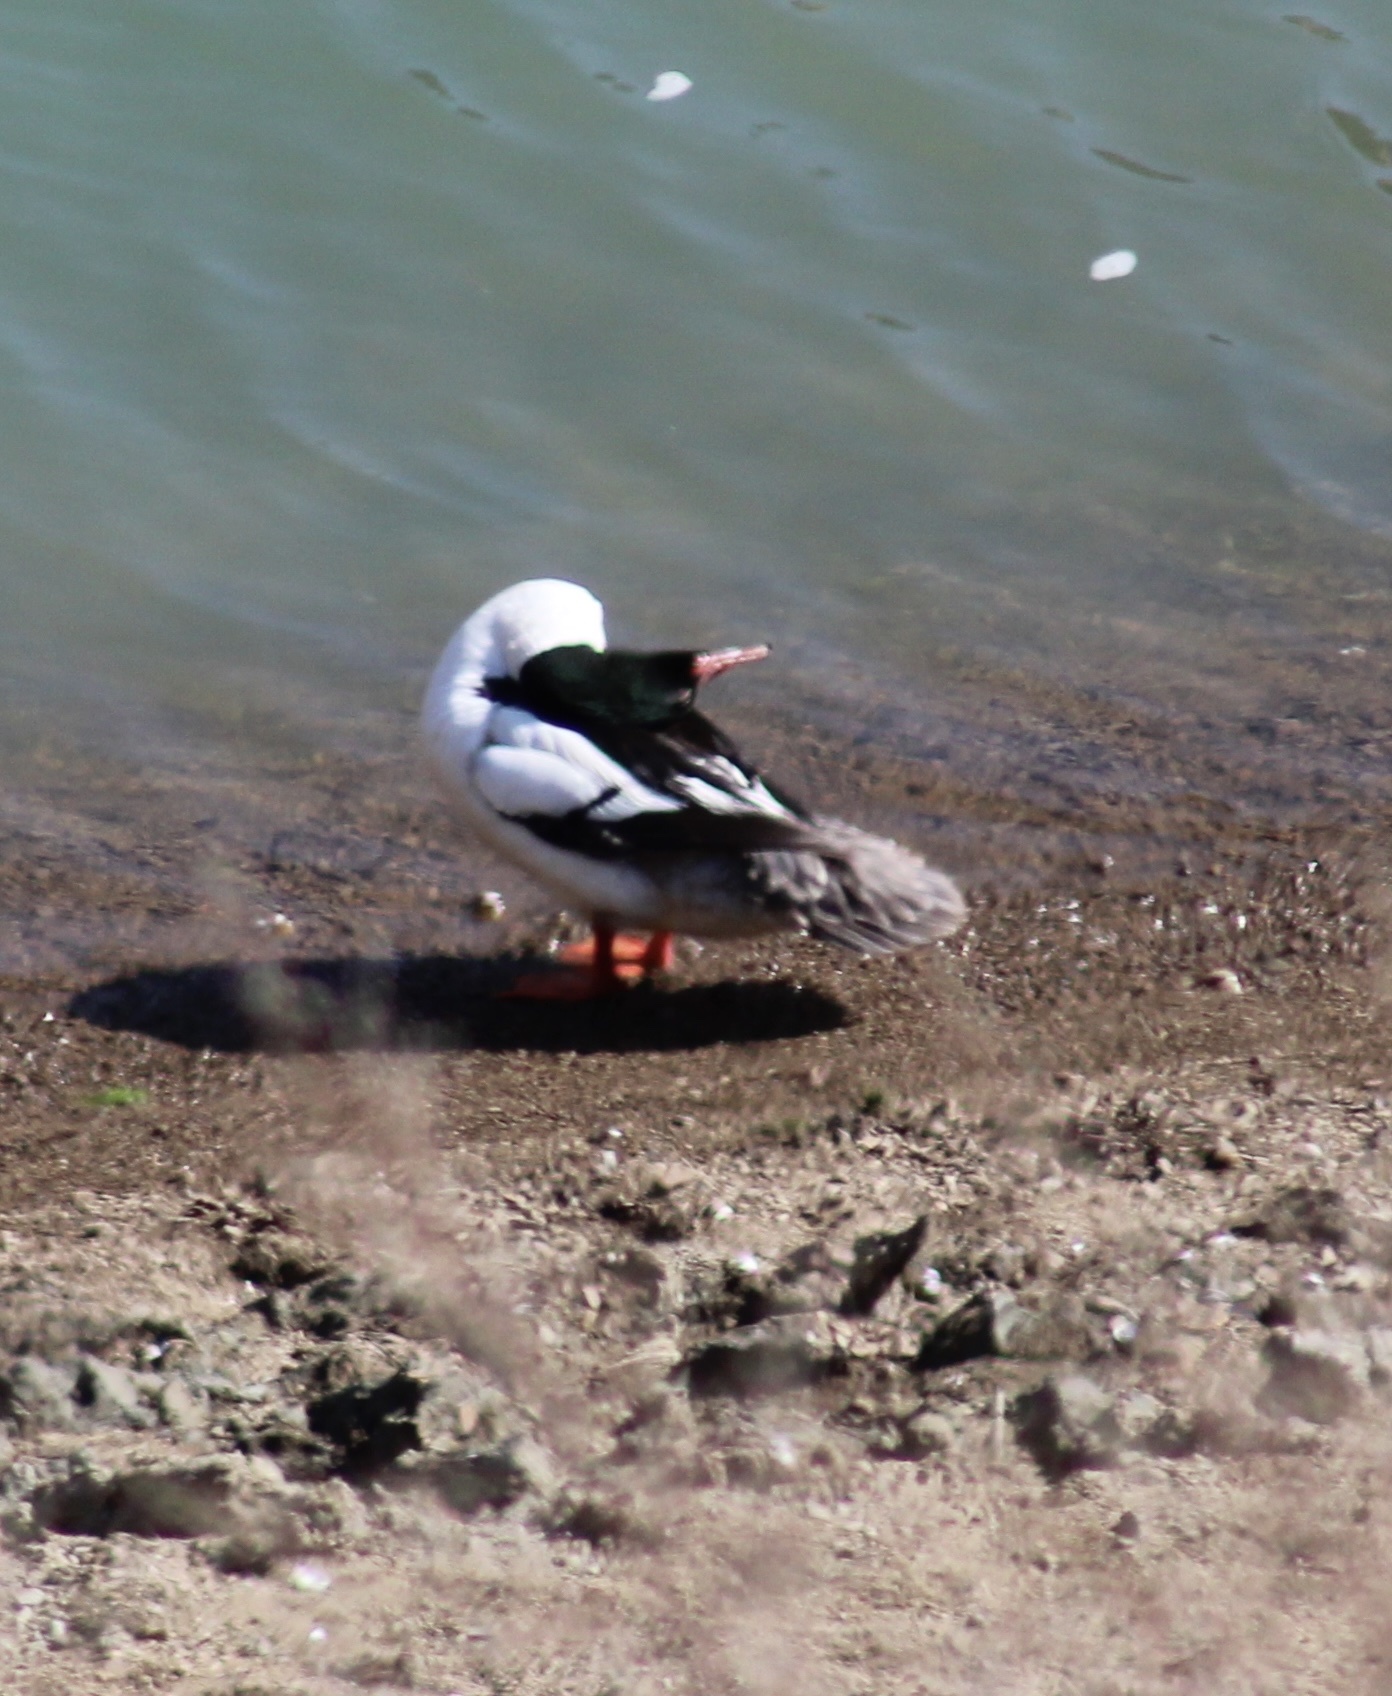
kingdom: Animalia
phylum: Chordata
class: Aves
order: Anseriformes
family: Anatidae
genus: Mergus
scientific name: Mergus merganser
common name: Common merganser
